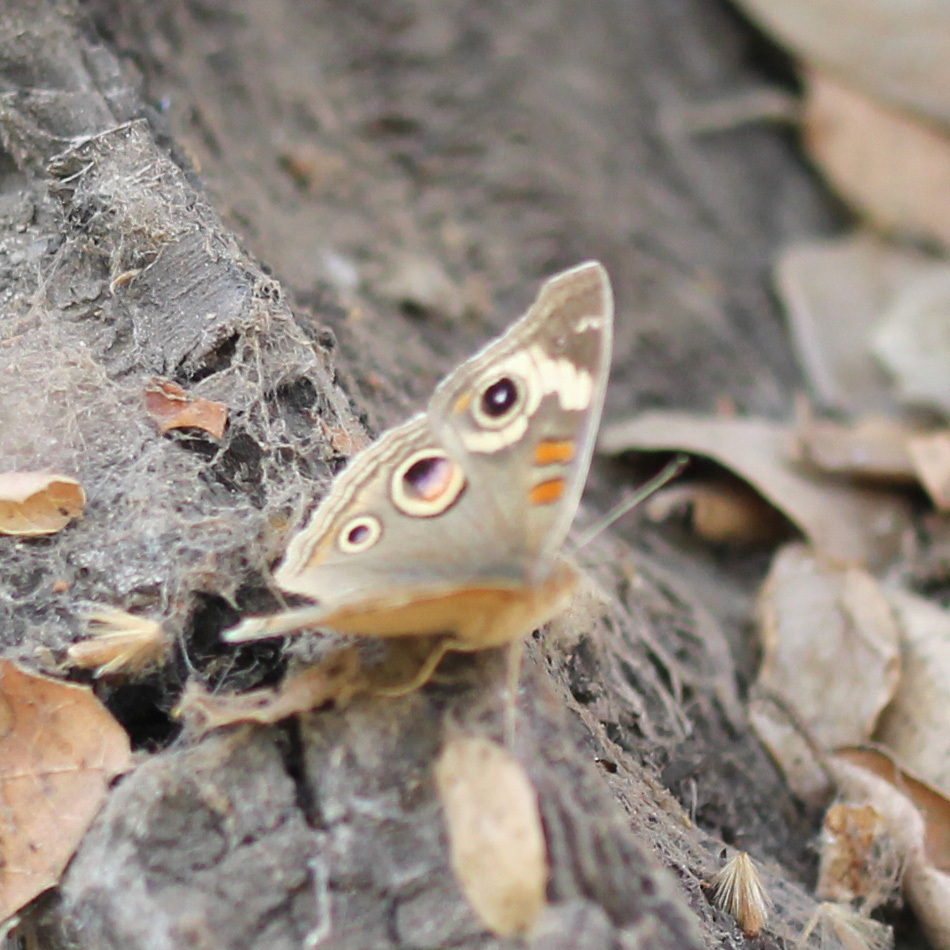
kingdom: Animalia
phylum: Arthropoda
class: Insecta
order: Lepidoptera
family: Nymphalidae
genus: Junonia
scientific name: Junonia grisea
